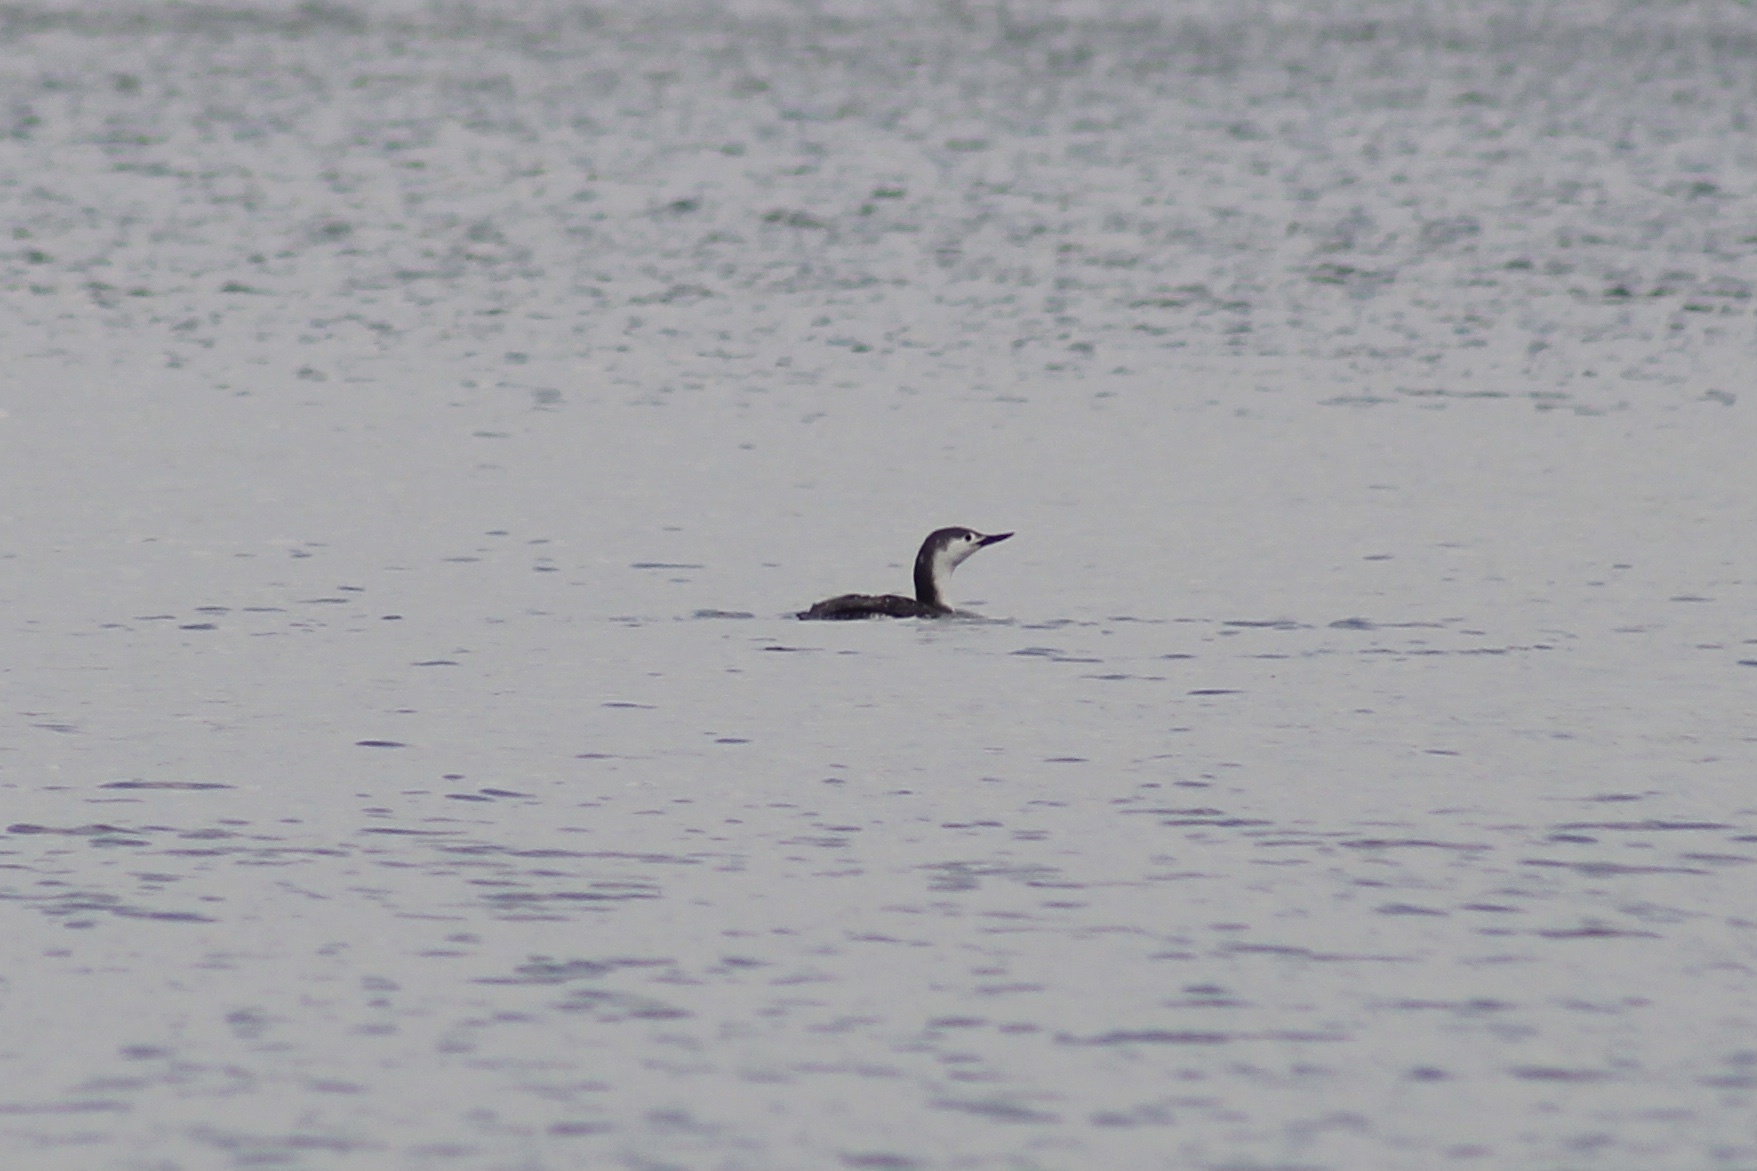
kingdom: Animalia
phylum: Chordata
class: Aves
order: Gaviiformes
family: Gaviidae
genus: Gavia
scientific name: Gavia stellata
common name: Red-throated loon
